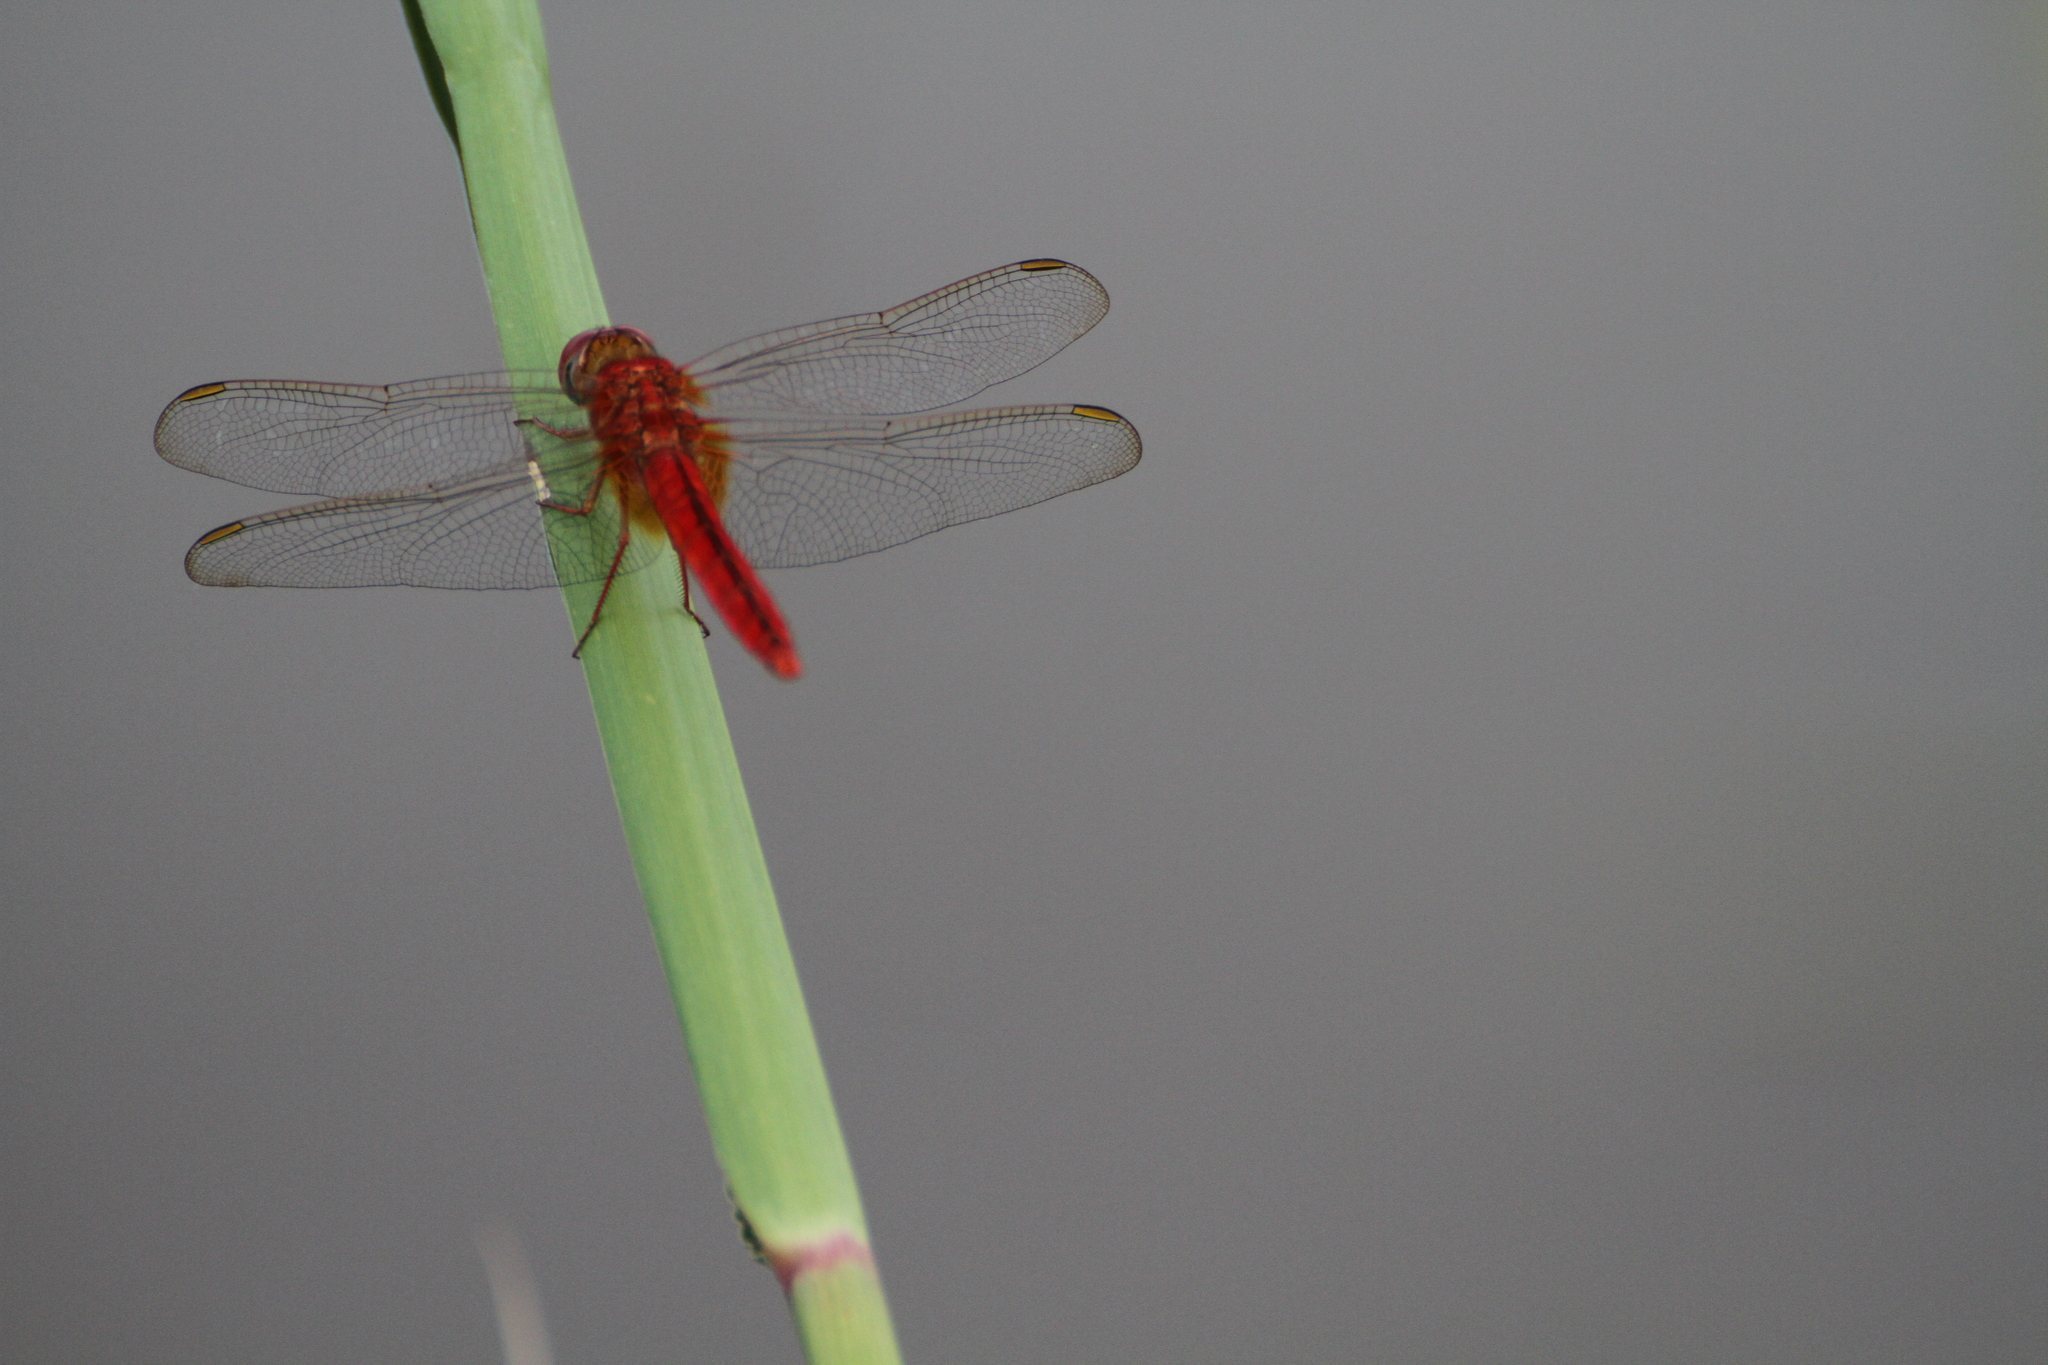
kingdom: Animalia
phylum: Arthropoda
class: Insecta
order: Odonata
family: Libellulidae
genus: Crocothemis
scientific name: Crocothemis servilia
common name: Scarlet skimmer
